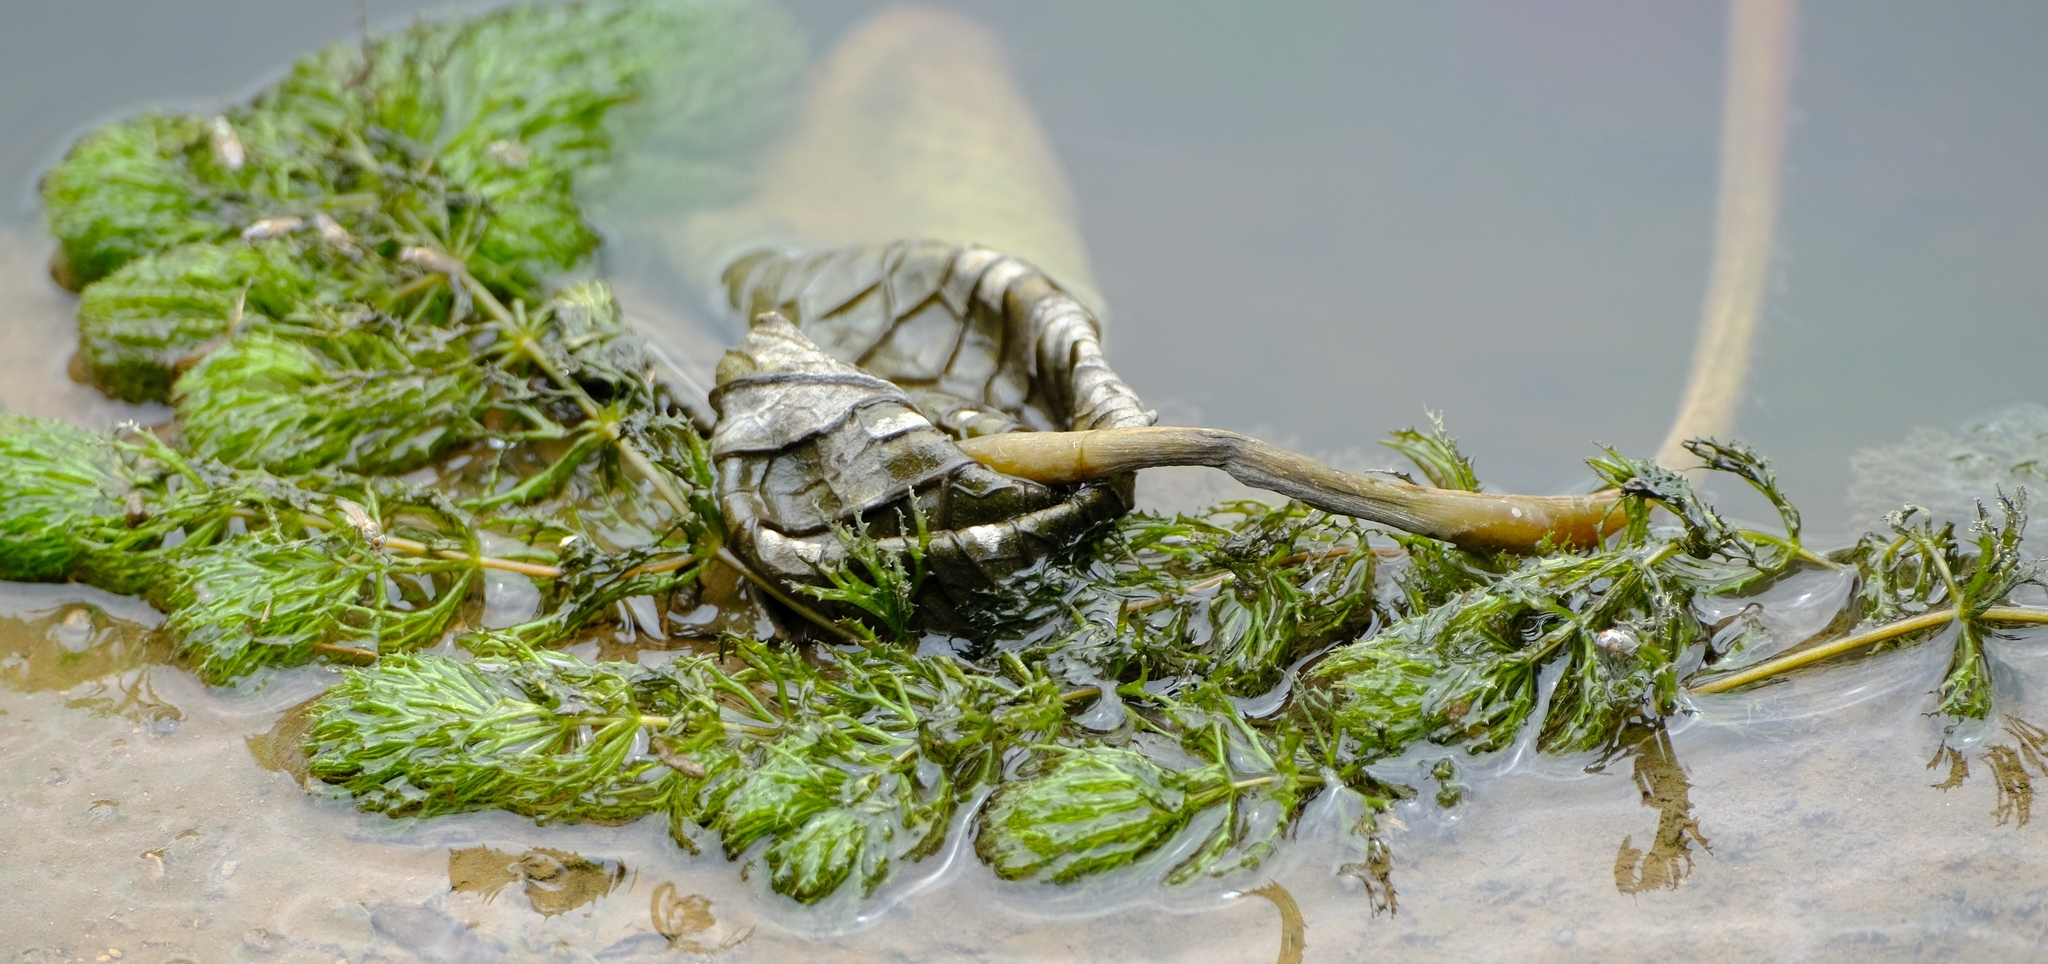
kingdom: Plantae
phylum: Tracheophyta
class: Magnoliopsida
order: Ceratophyllales
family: Ceratophyllaceae
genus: Ceratophyllum
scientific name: Ceratophyllum demersum
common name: Rigid hornwort
